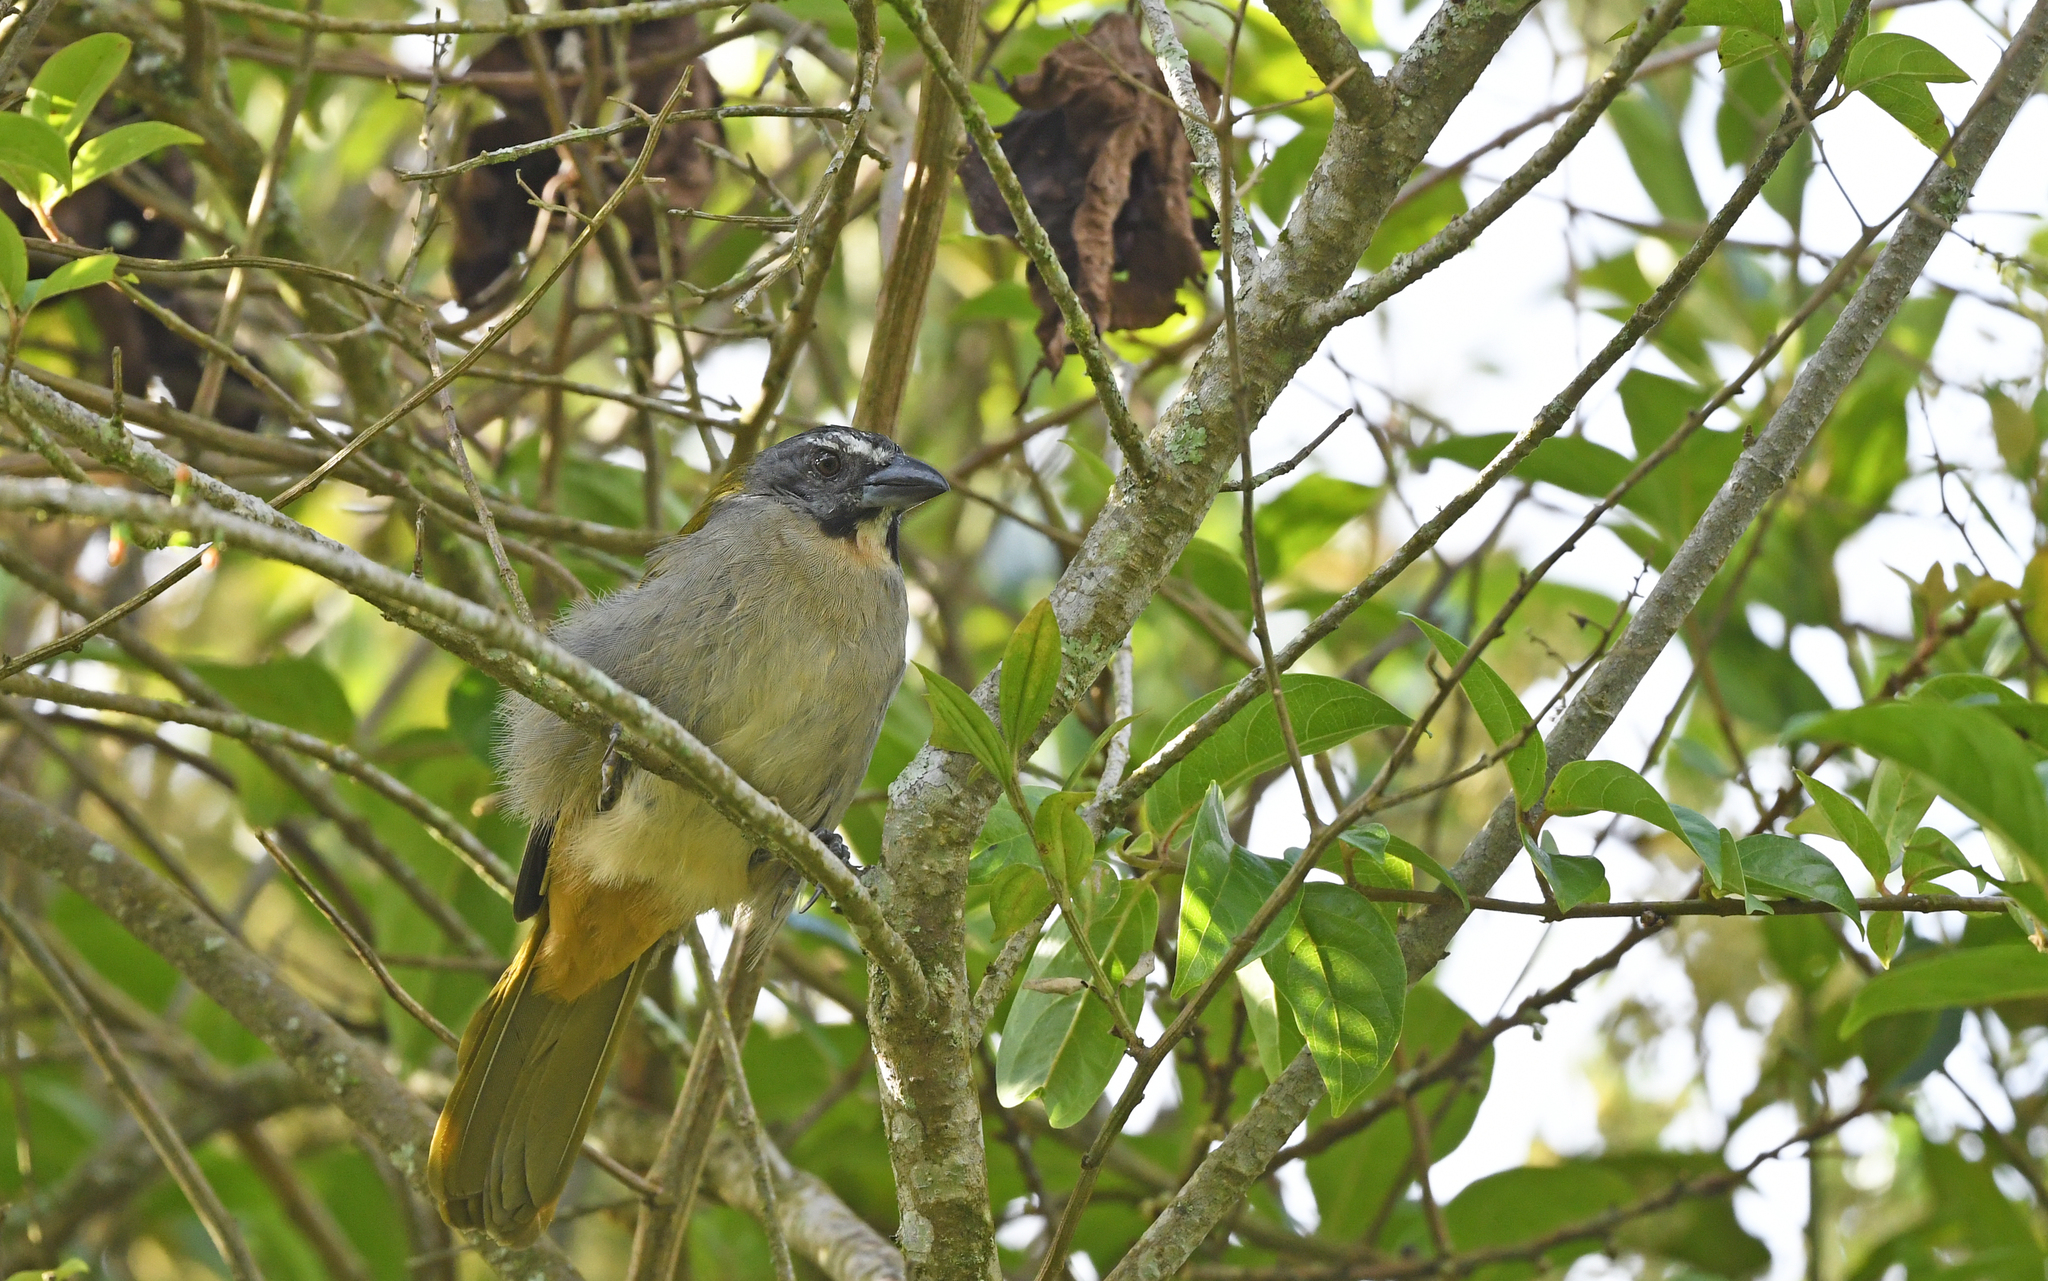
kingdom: Animalia
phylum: Chordata
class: Aves
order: Passeriformes
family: Thraupidae
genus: Saltator
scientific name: Saltator maximus
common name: Buff-throated saltator
